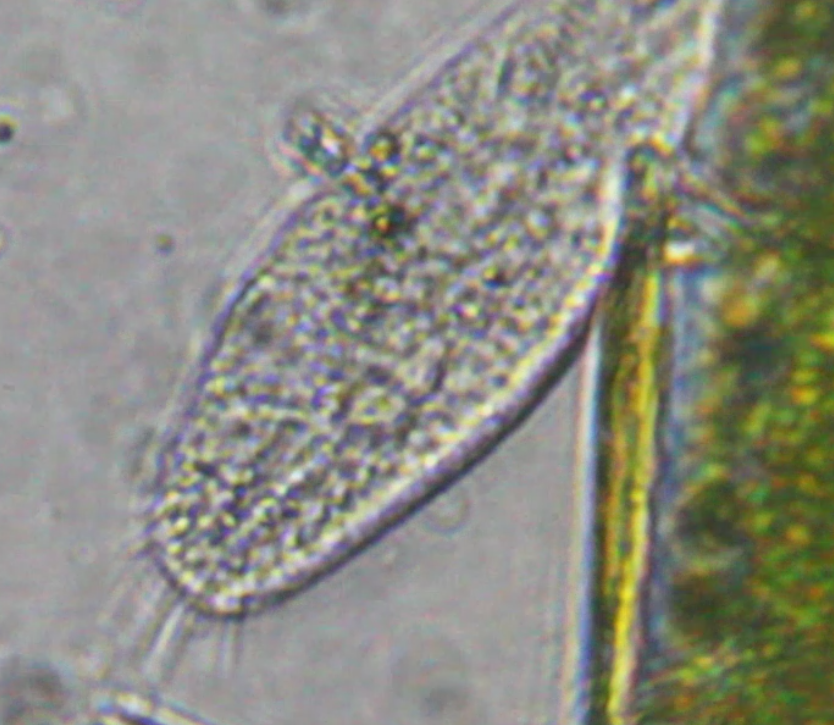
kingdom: Chromista
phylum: Ciliophora
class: Hypotrichea
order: Urostylida
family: Holostichidae
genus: Holosticha
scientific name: Holosticha pullaster
